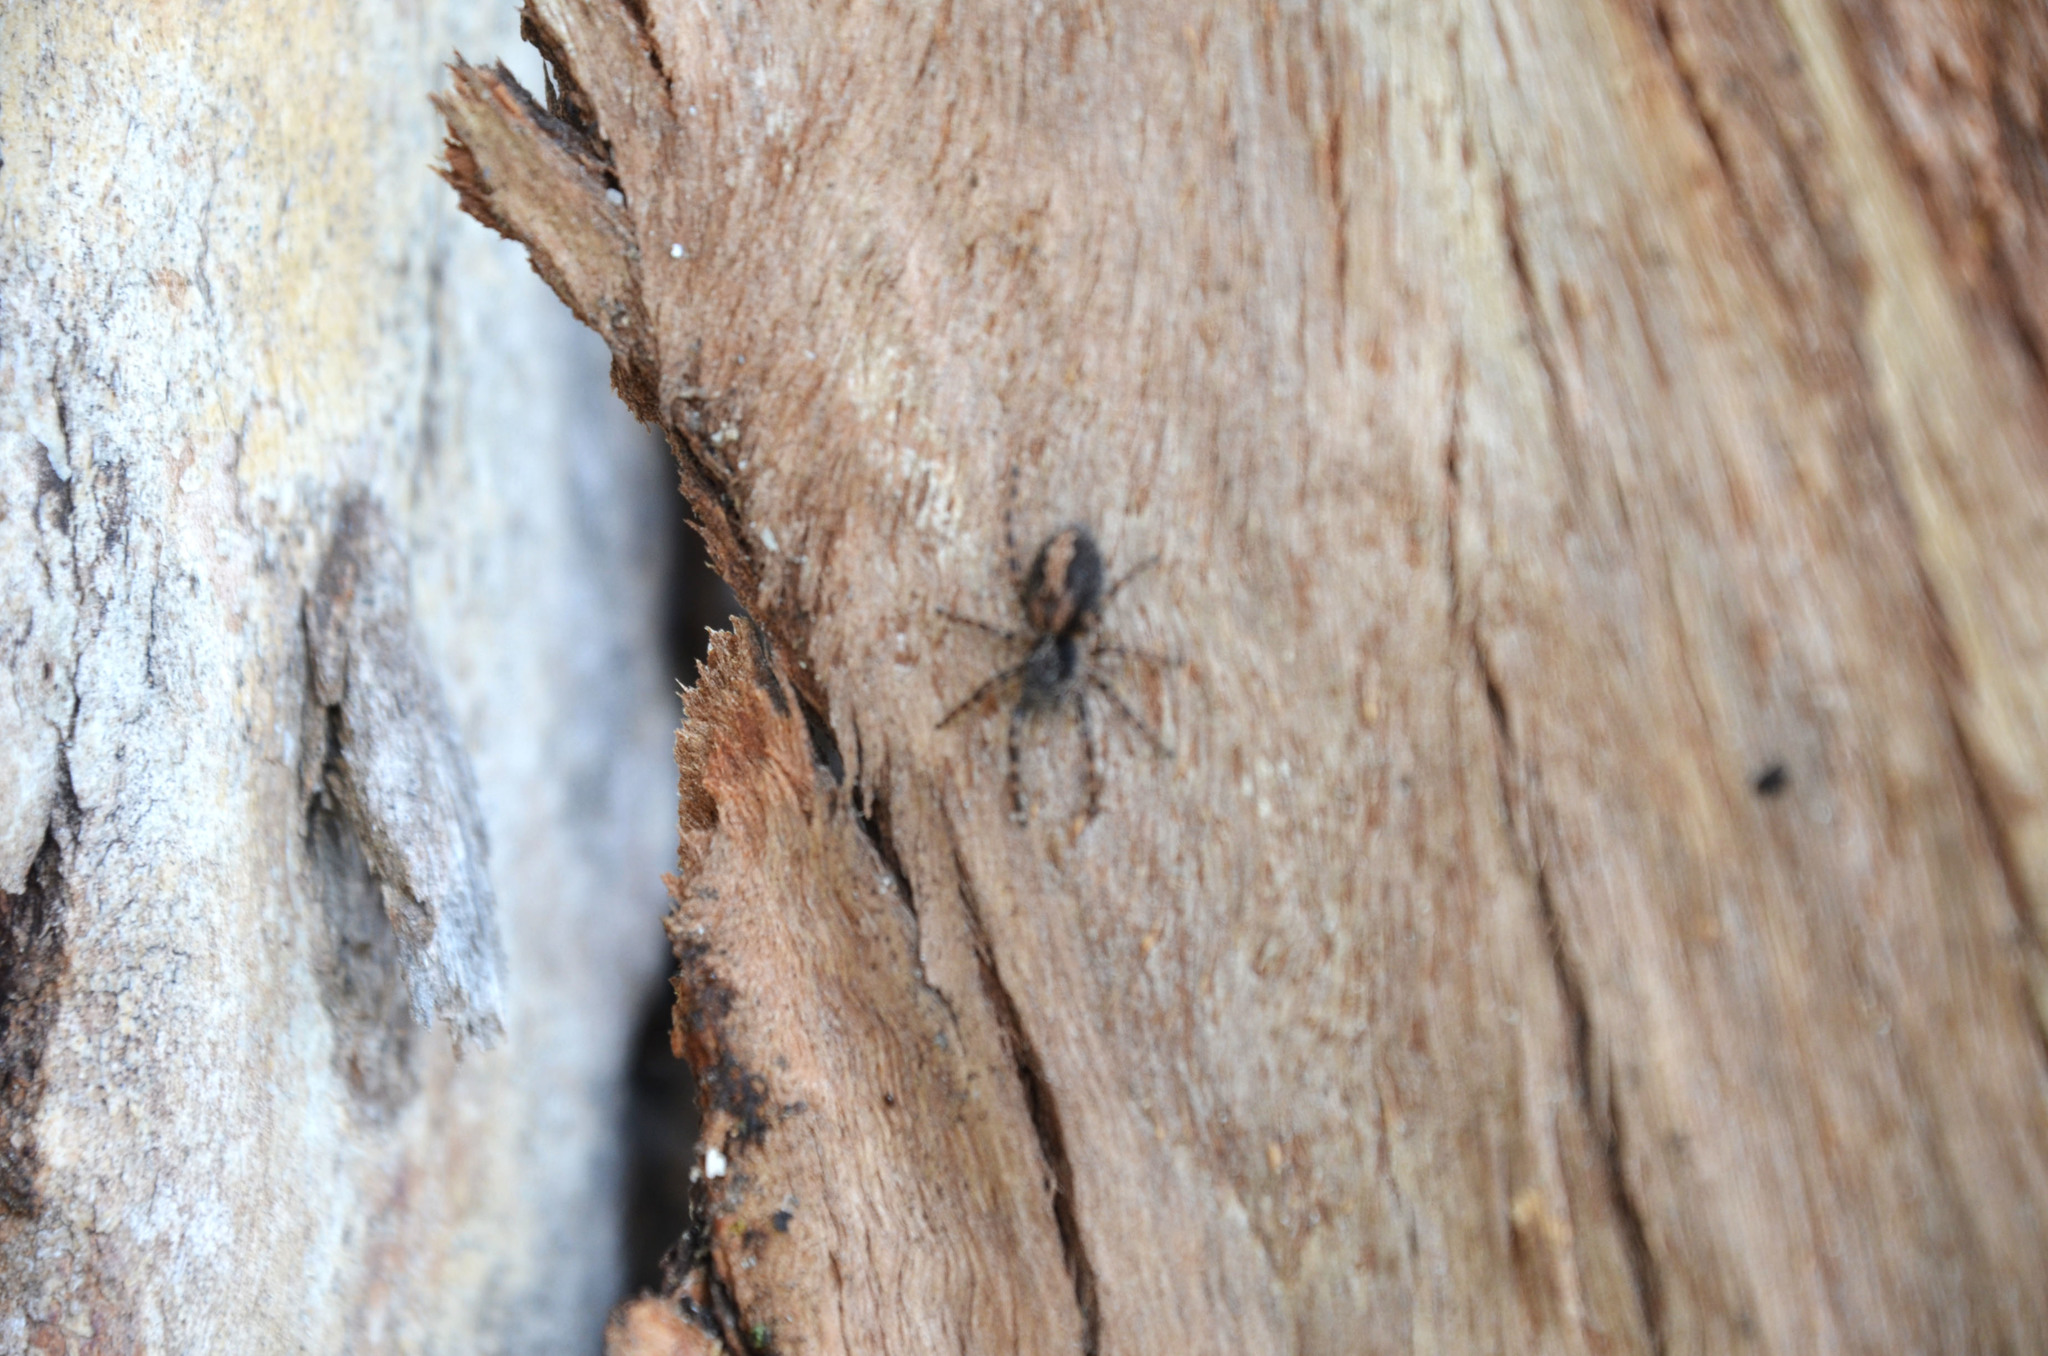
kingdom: Animalia
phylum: Arthropoda
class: Arachnida
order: Araneae
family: Salticidae
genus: Titanattus
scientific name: Titanattus andinus
